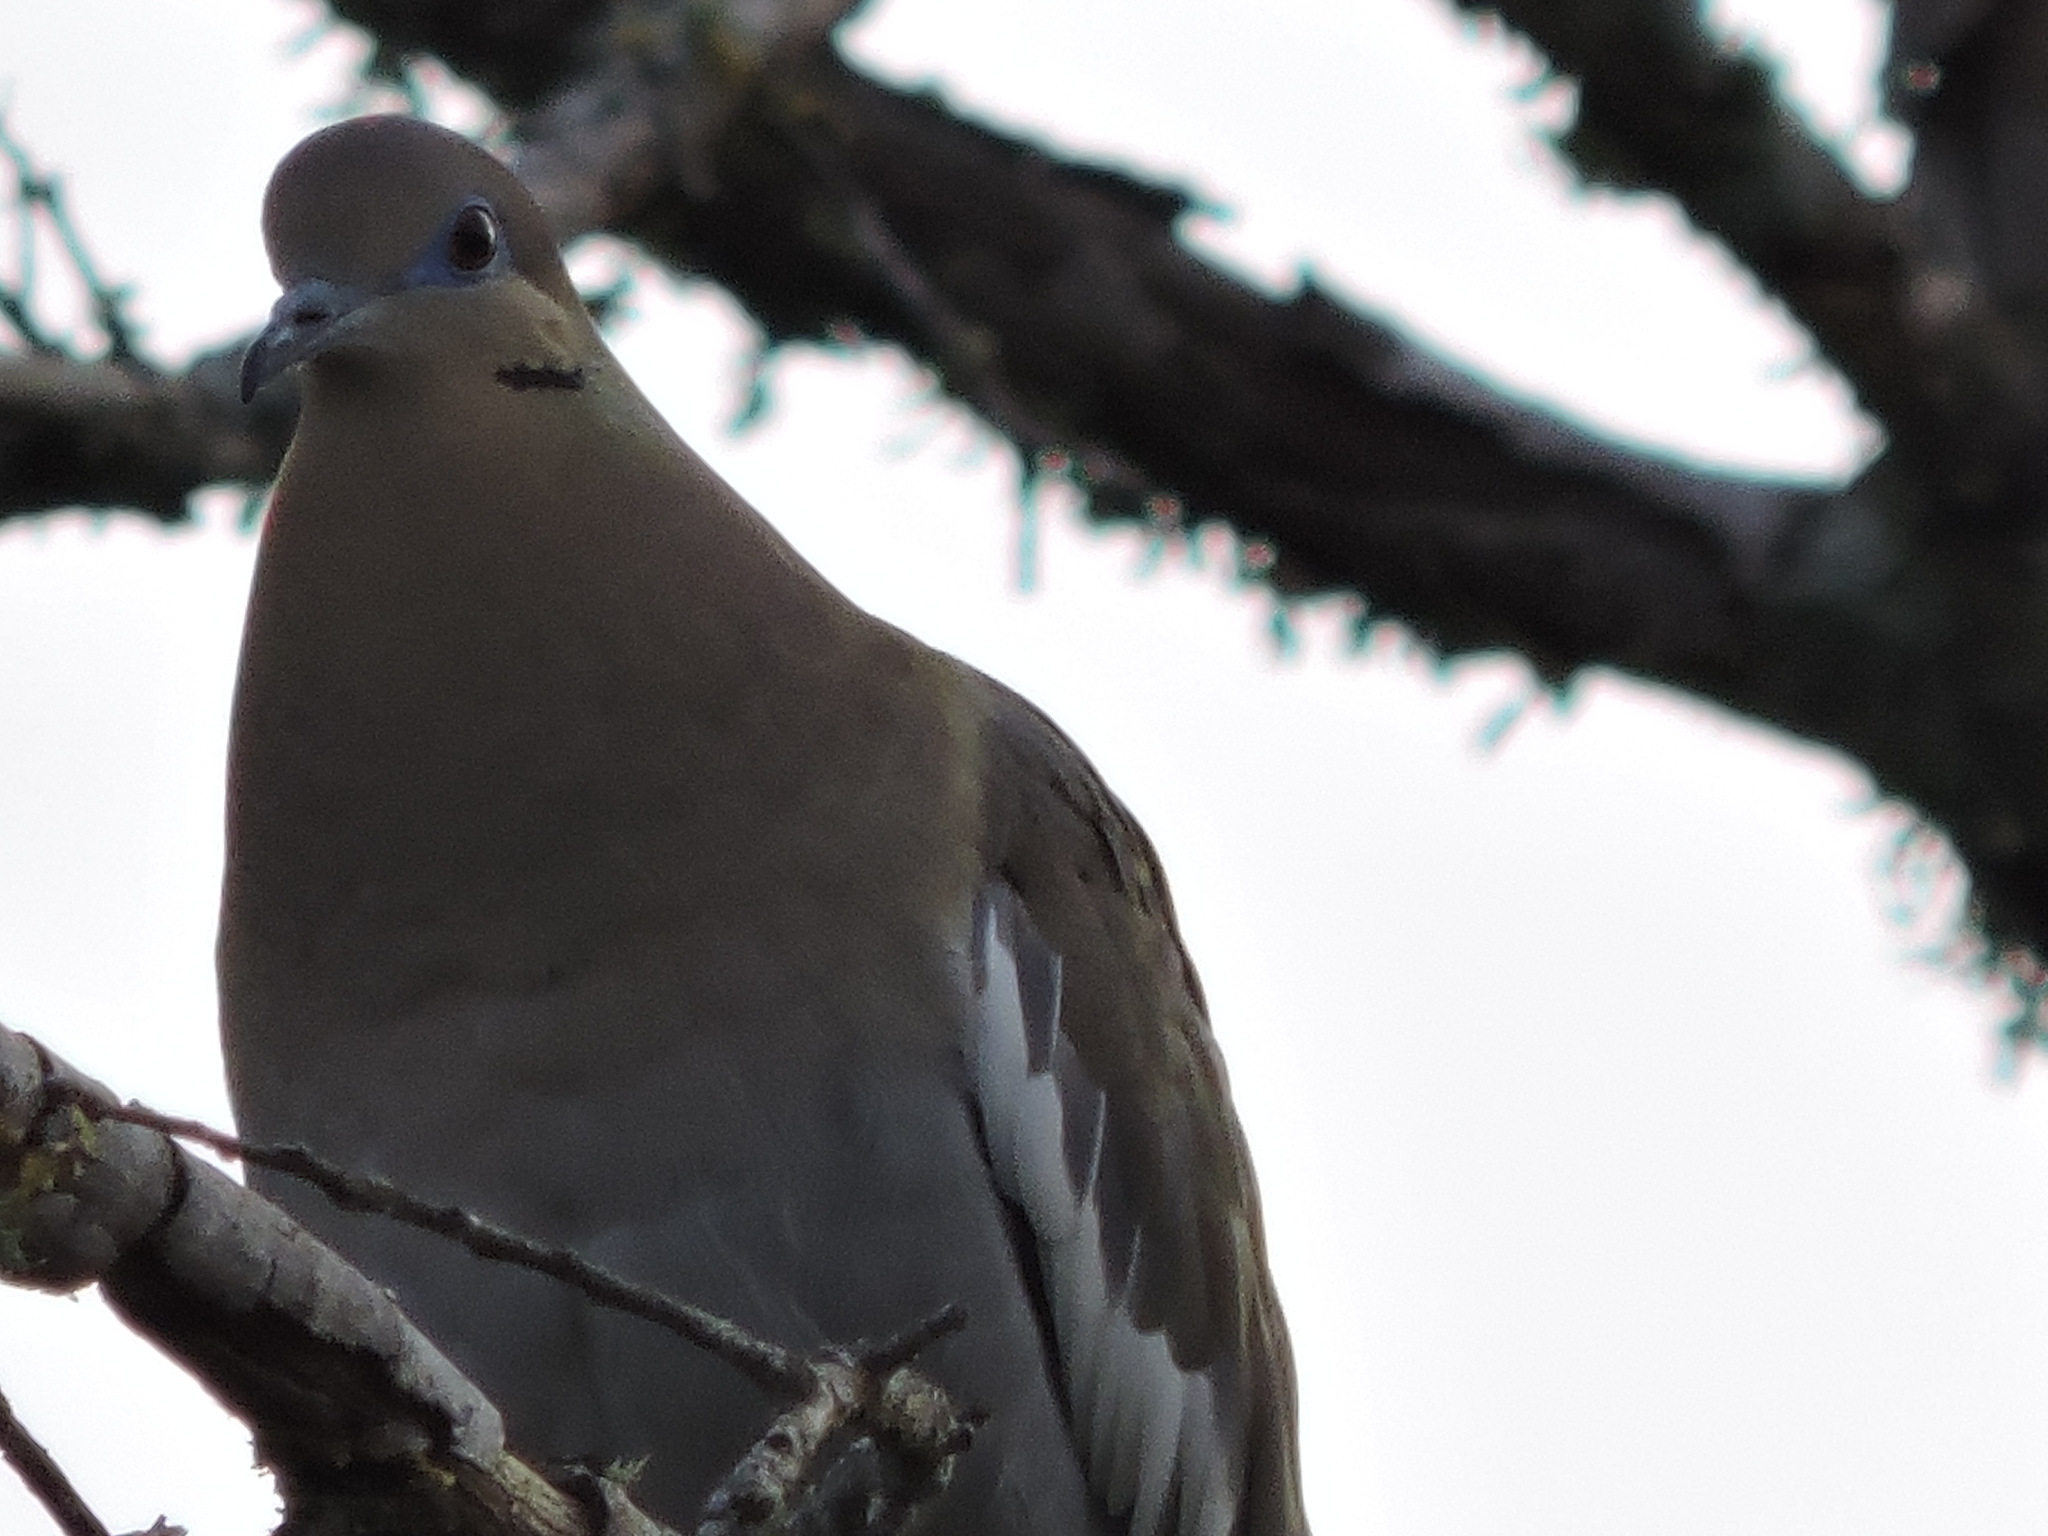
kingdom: Animalia
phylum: Chordata
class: Aves
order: Columbiformes
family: Columbidae
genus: Zenaida
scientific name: Zenaida asiatica
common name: White-winged dove
